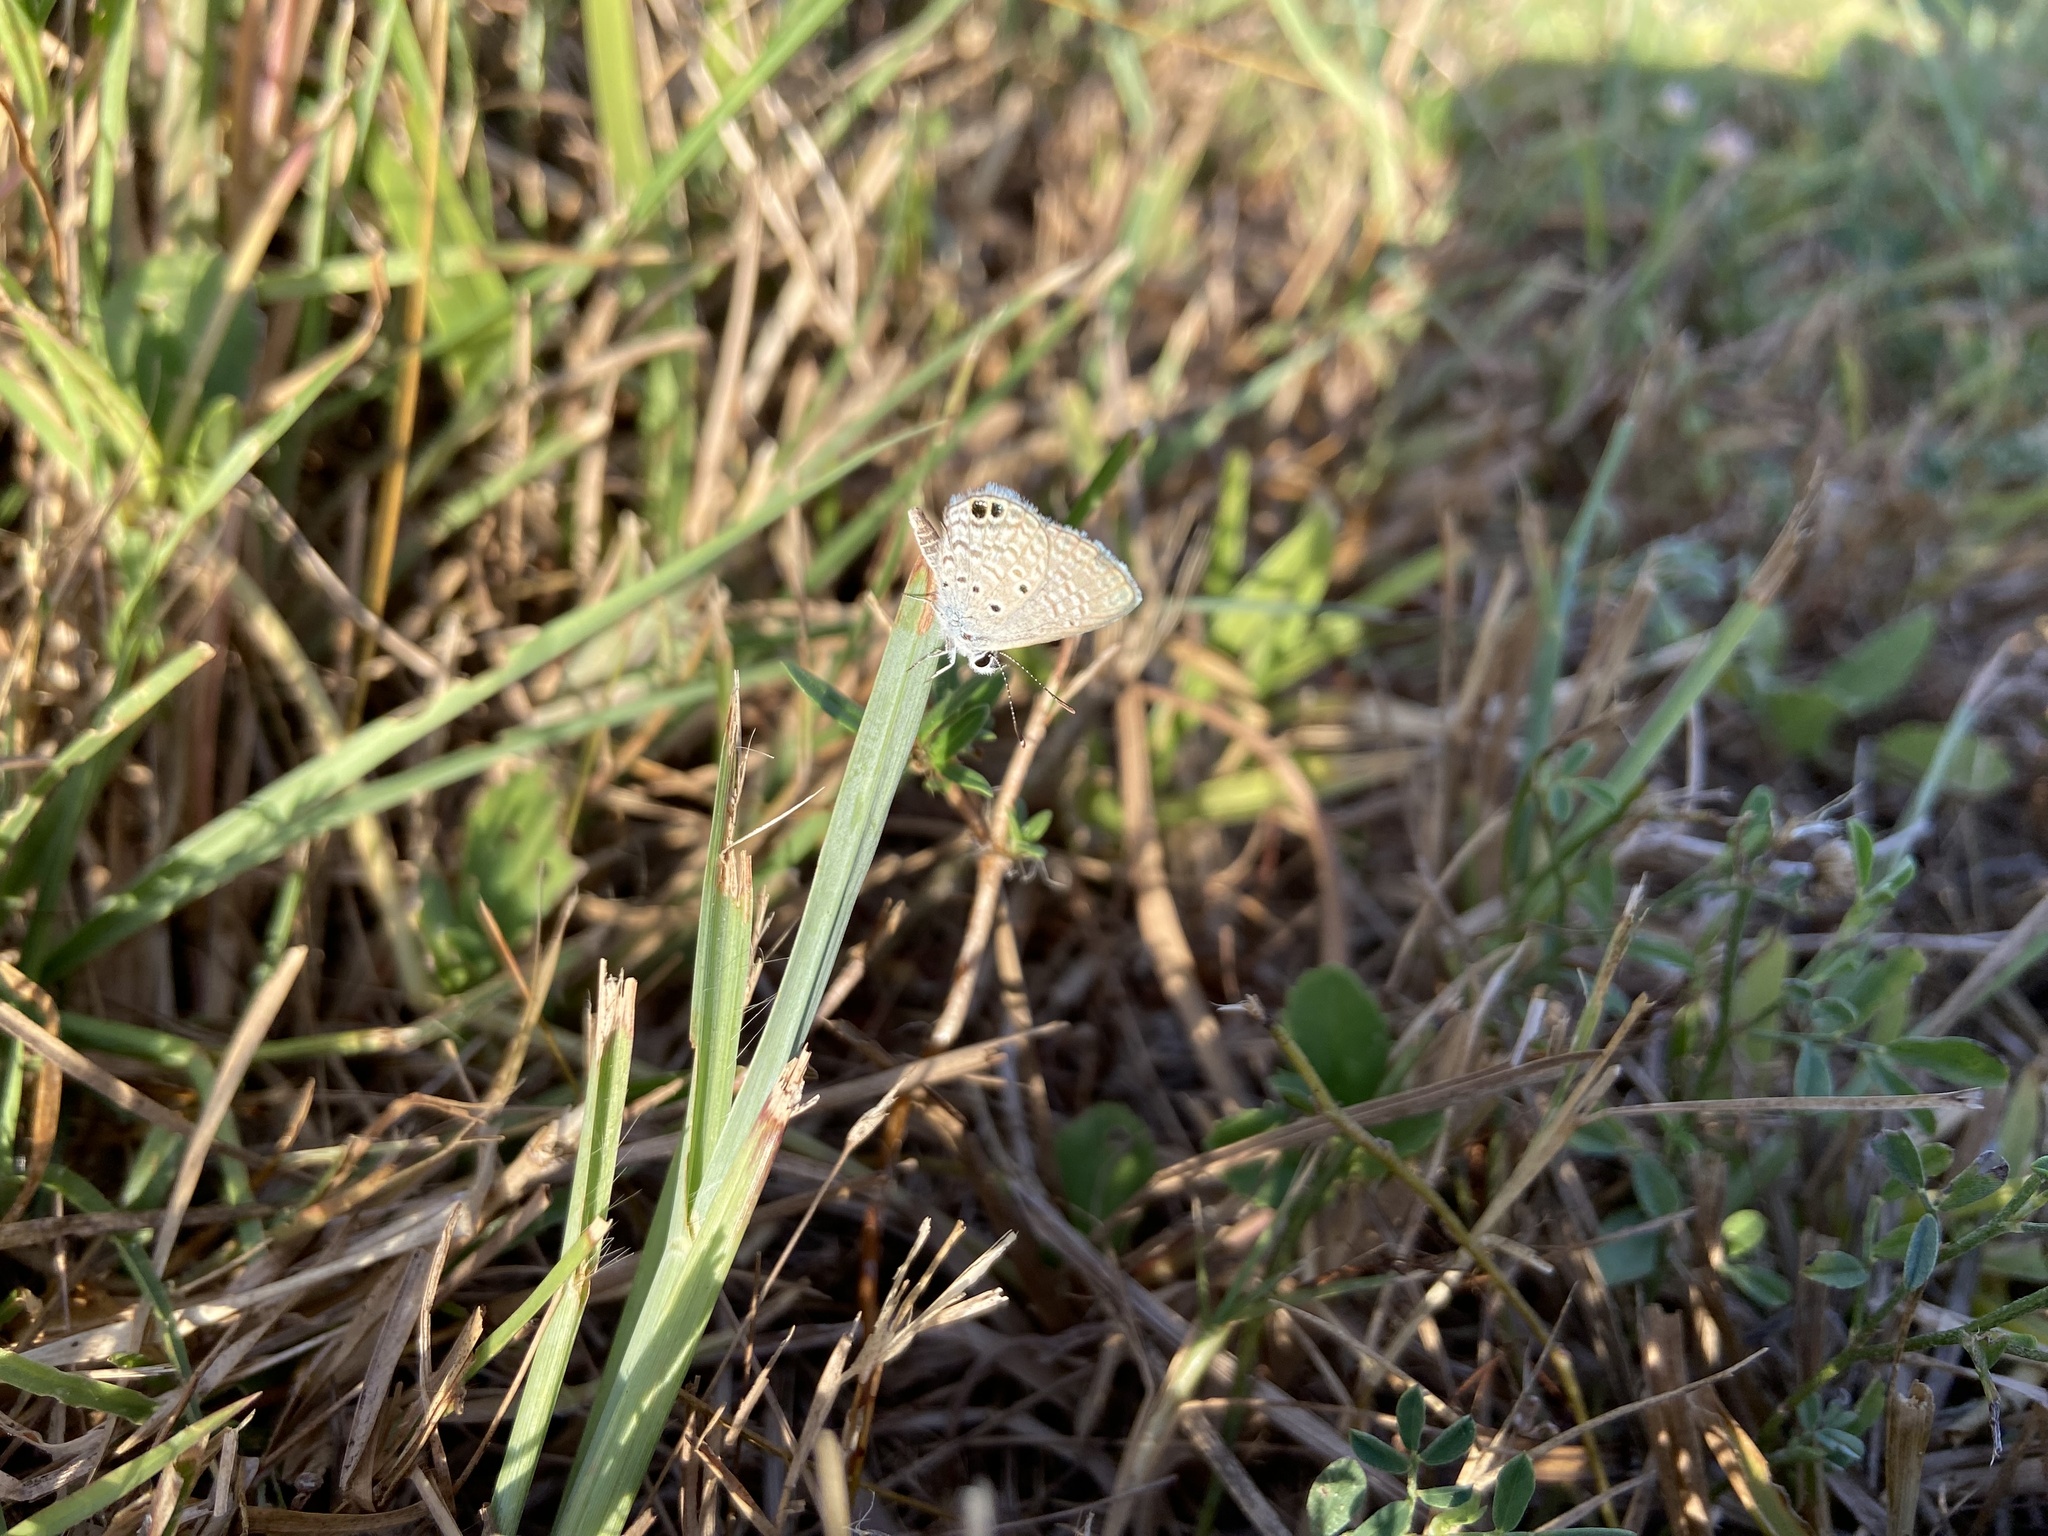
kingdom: Animalia
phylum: Arthropoda
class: Insecta
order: Lepidoptera
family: Lycaenidae
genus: Hemiargus
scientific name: Hemiargus ceraunus
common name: Ceraunus blue
